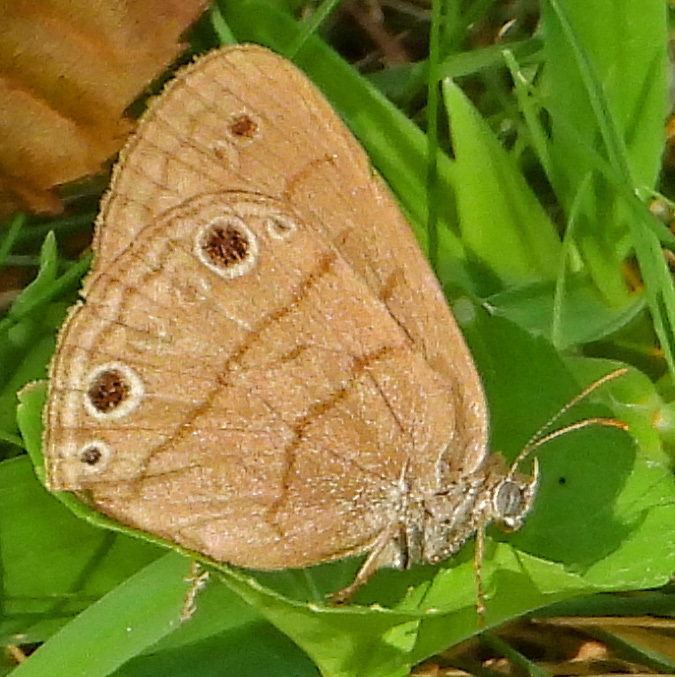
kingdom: Animalia
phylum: Arthropoda
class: Insecta
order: Lepidoptera
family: Nymphalidae
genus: Hermeuptychia
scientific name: Hermeuptychia hermes
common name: Hermes satyr
